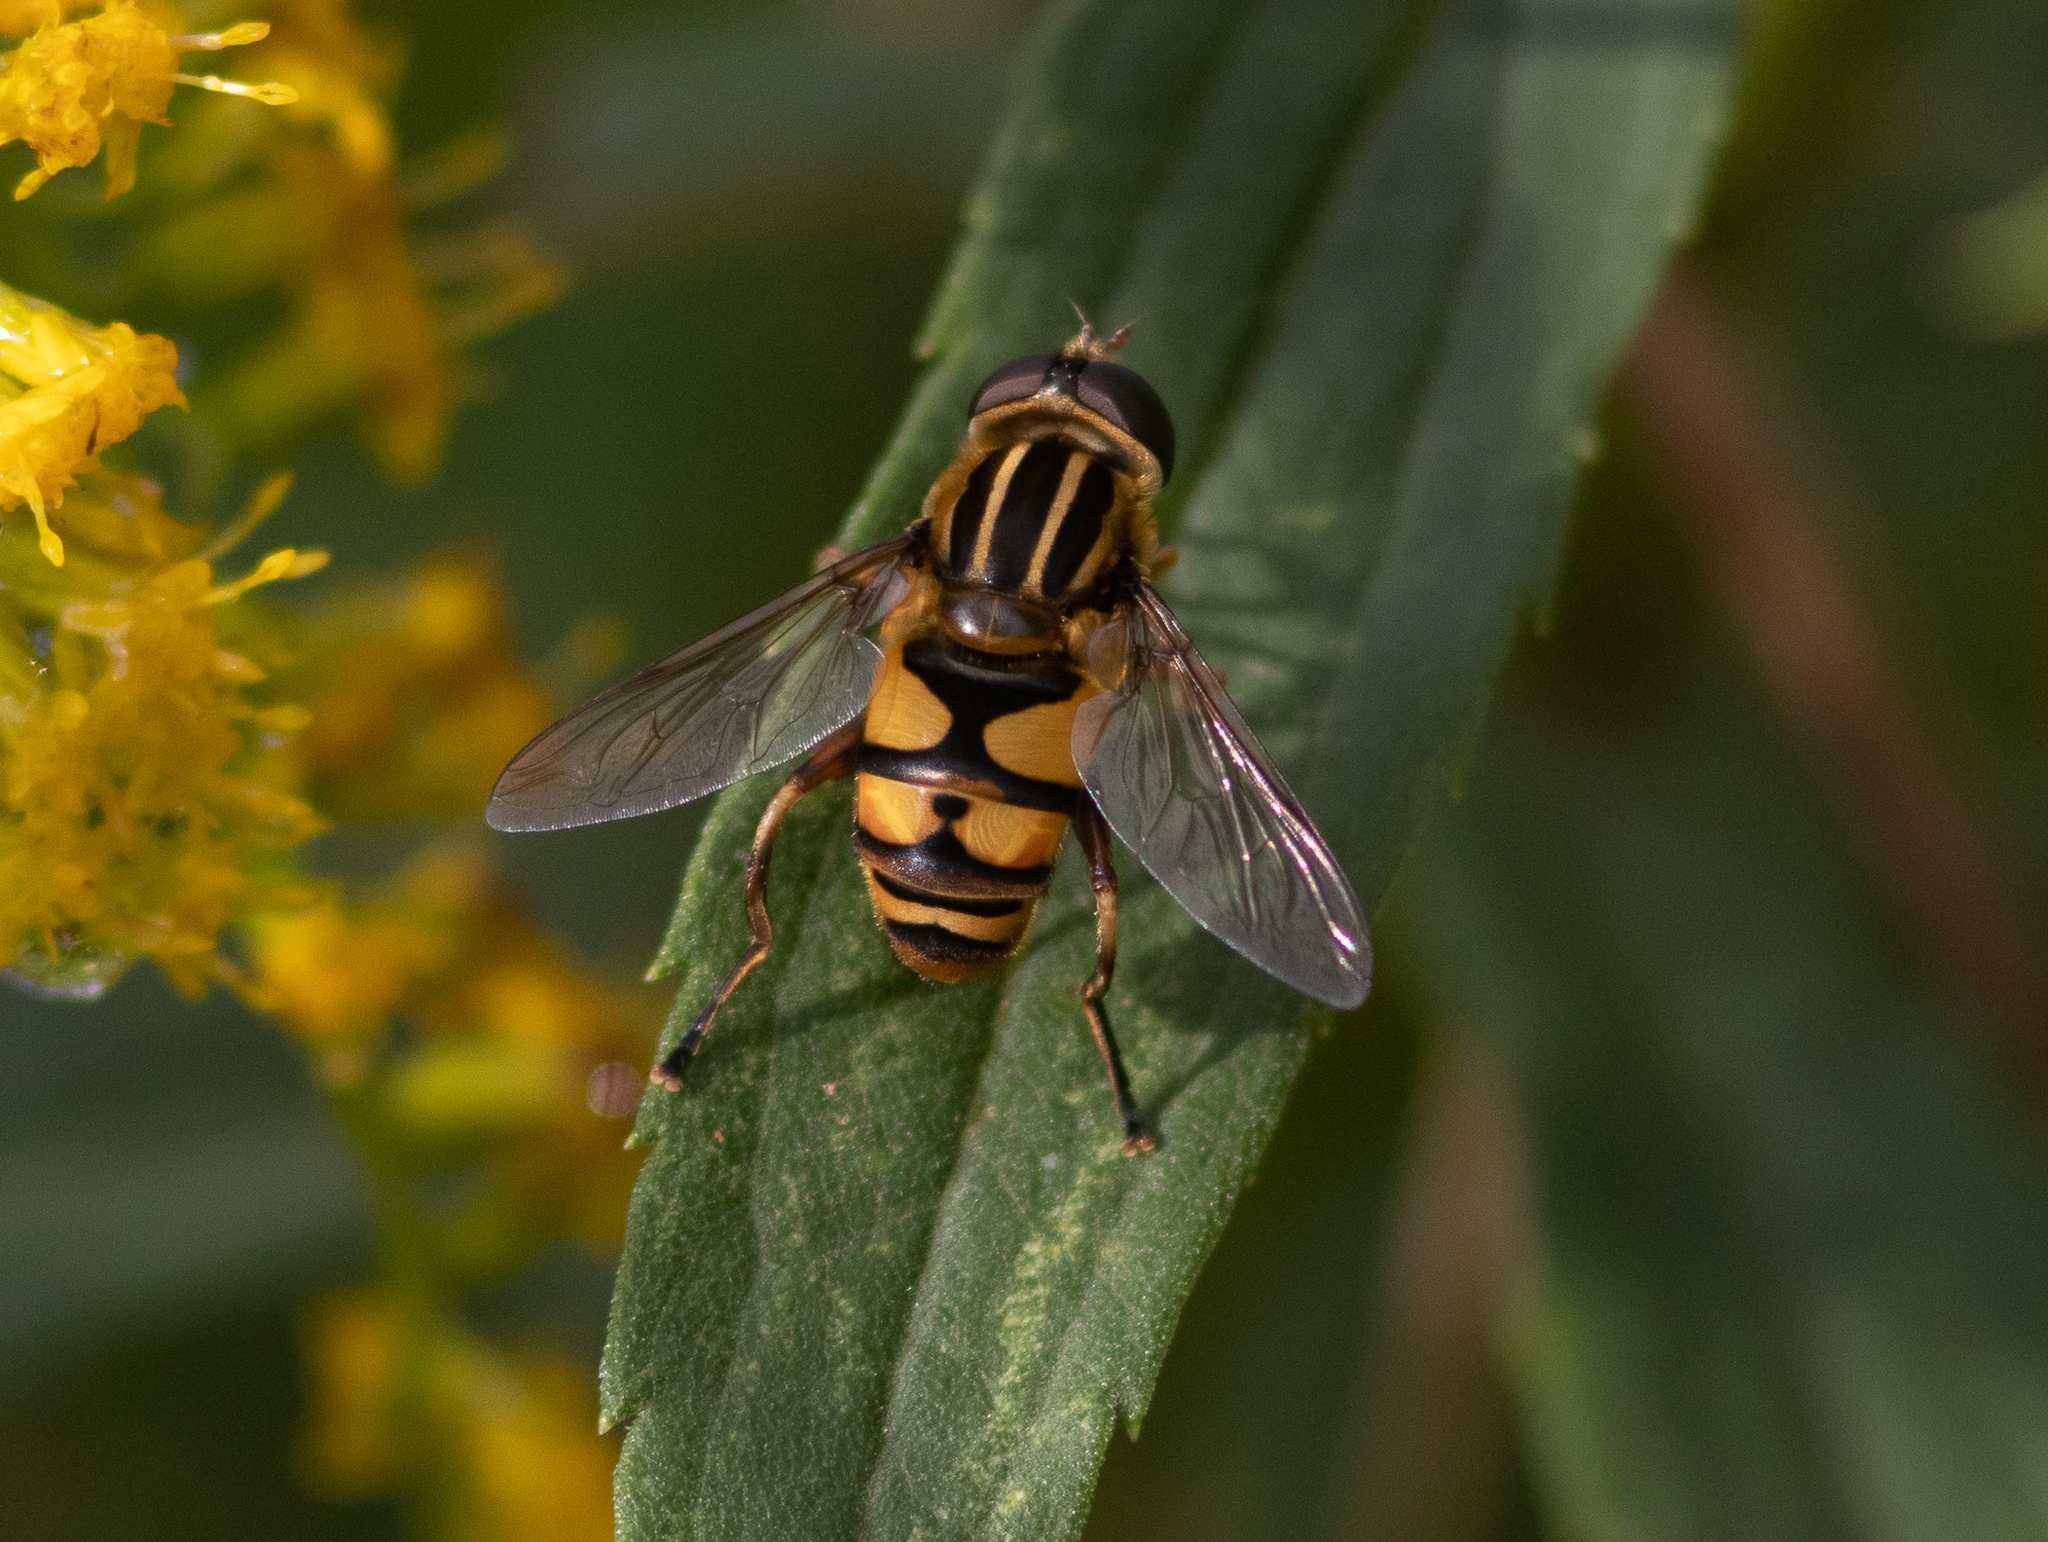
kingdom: Animalia
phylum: Arthropoda
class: Insecta
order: Diptera
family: Syrphidae
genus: Helophilus
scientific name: Helophilus fasciatus
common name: Narrow-headed marsh fly
